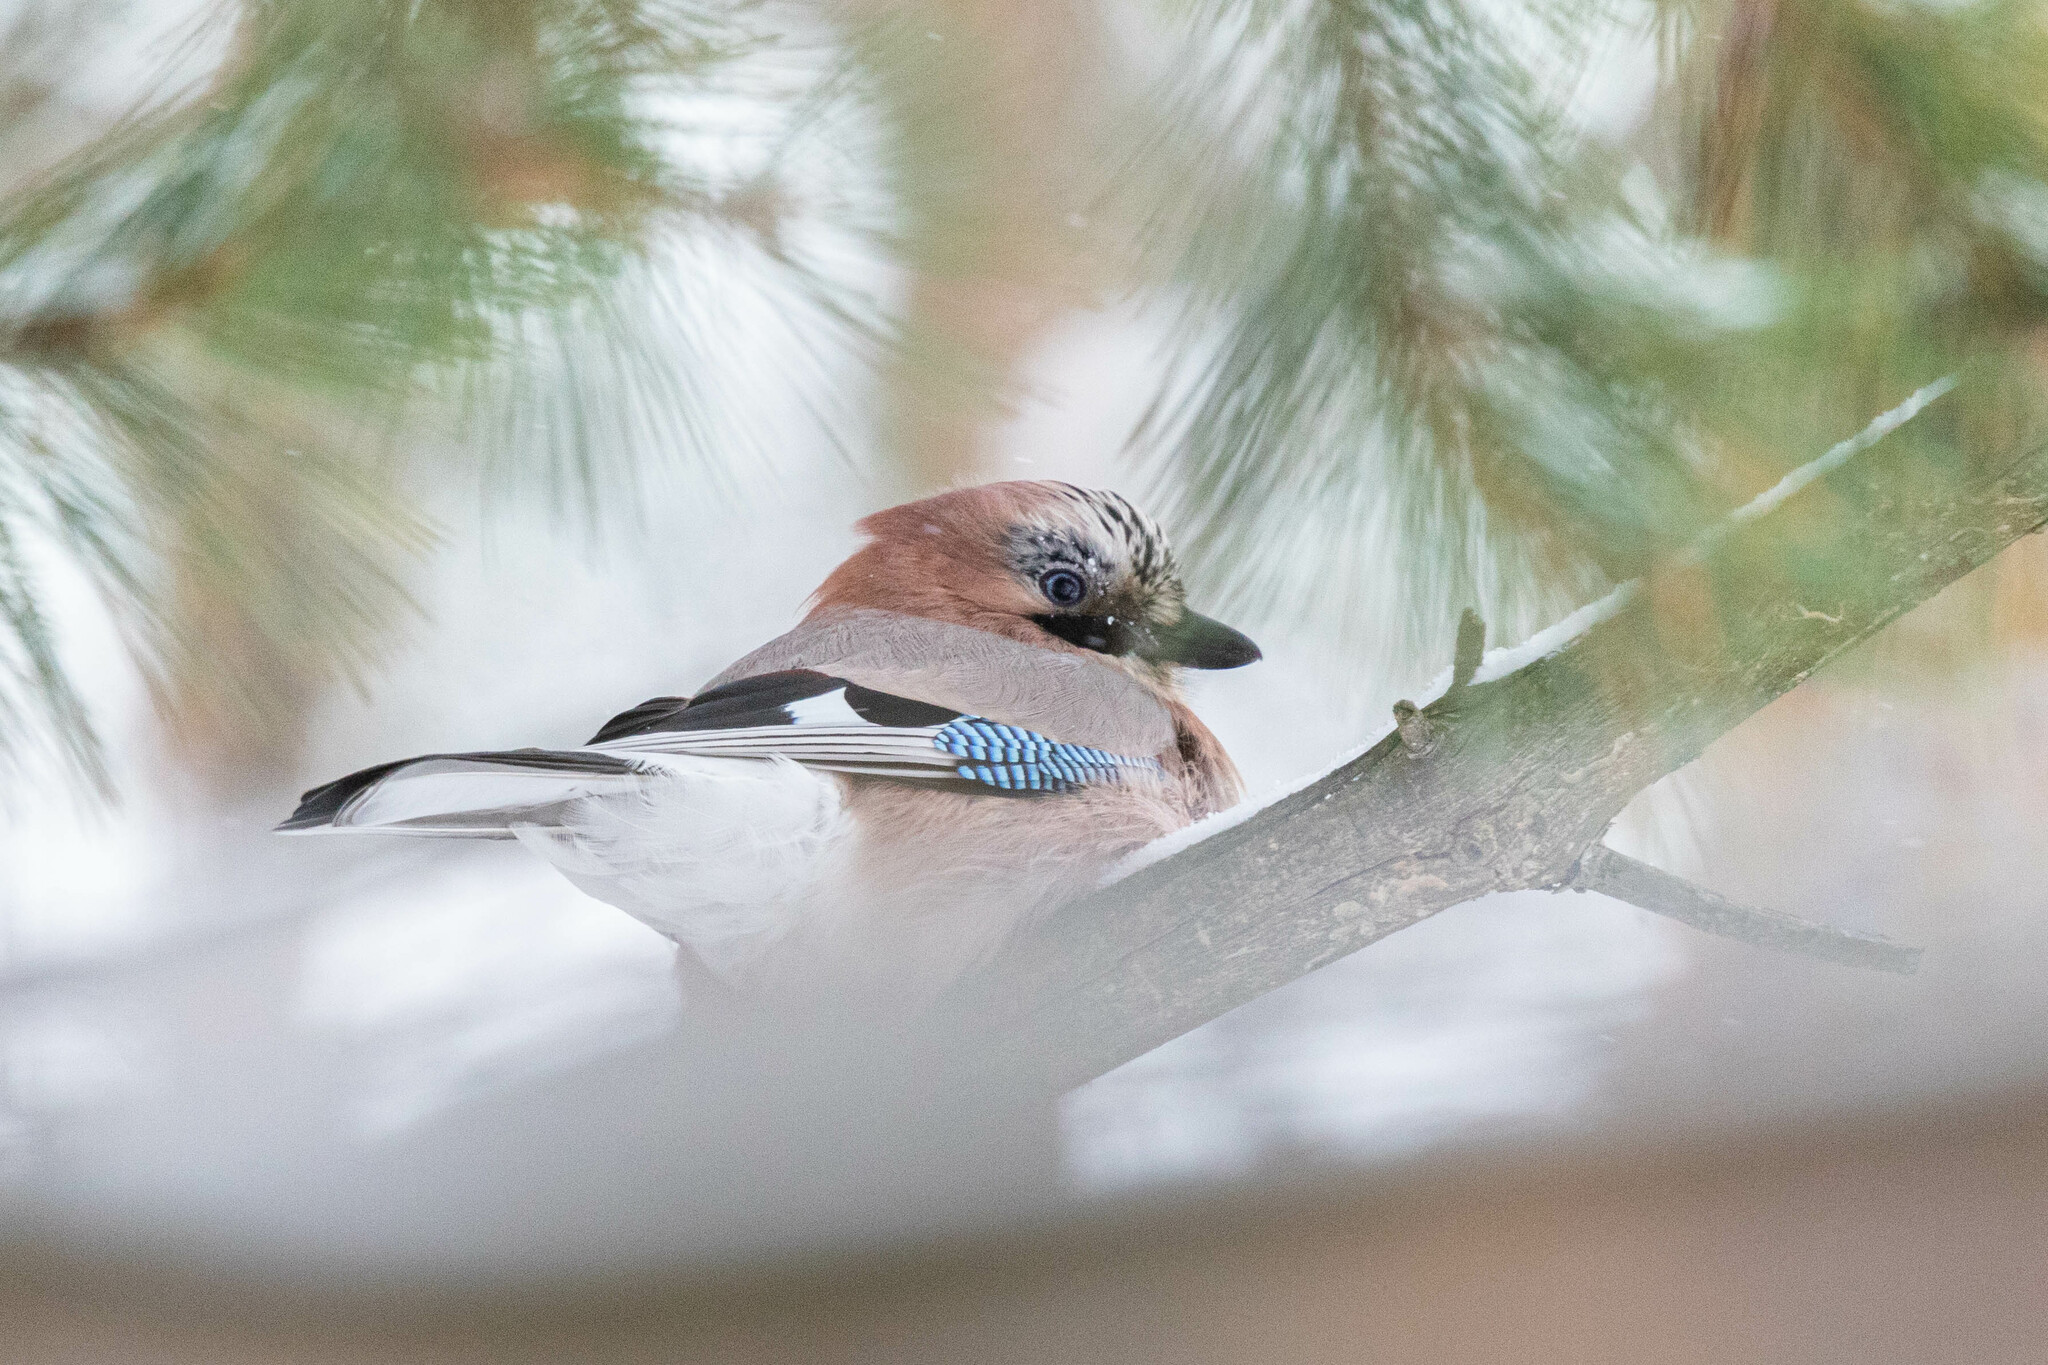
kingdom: Animalia
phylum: Chordata
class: Aves
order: Passeriformes
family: Corvidae
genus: Garrulus
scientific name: Garrulus glandarius
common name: Eurasian jay
